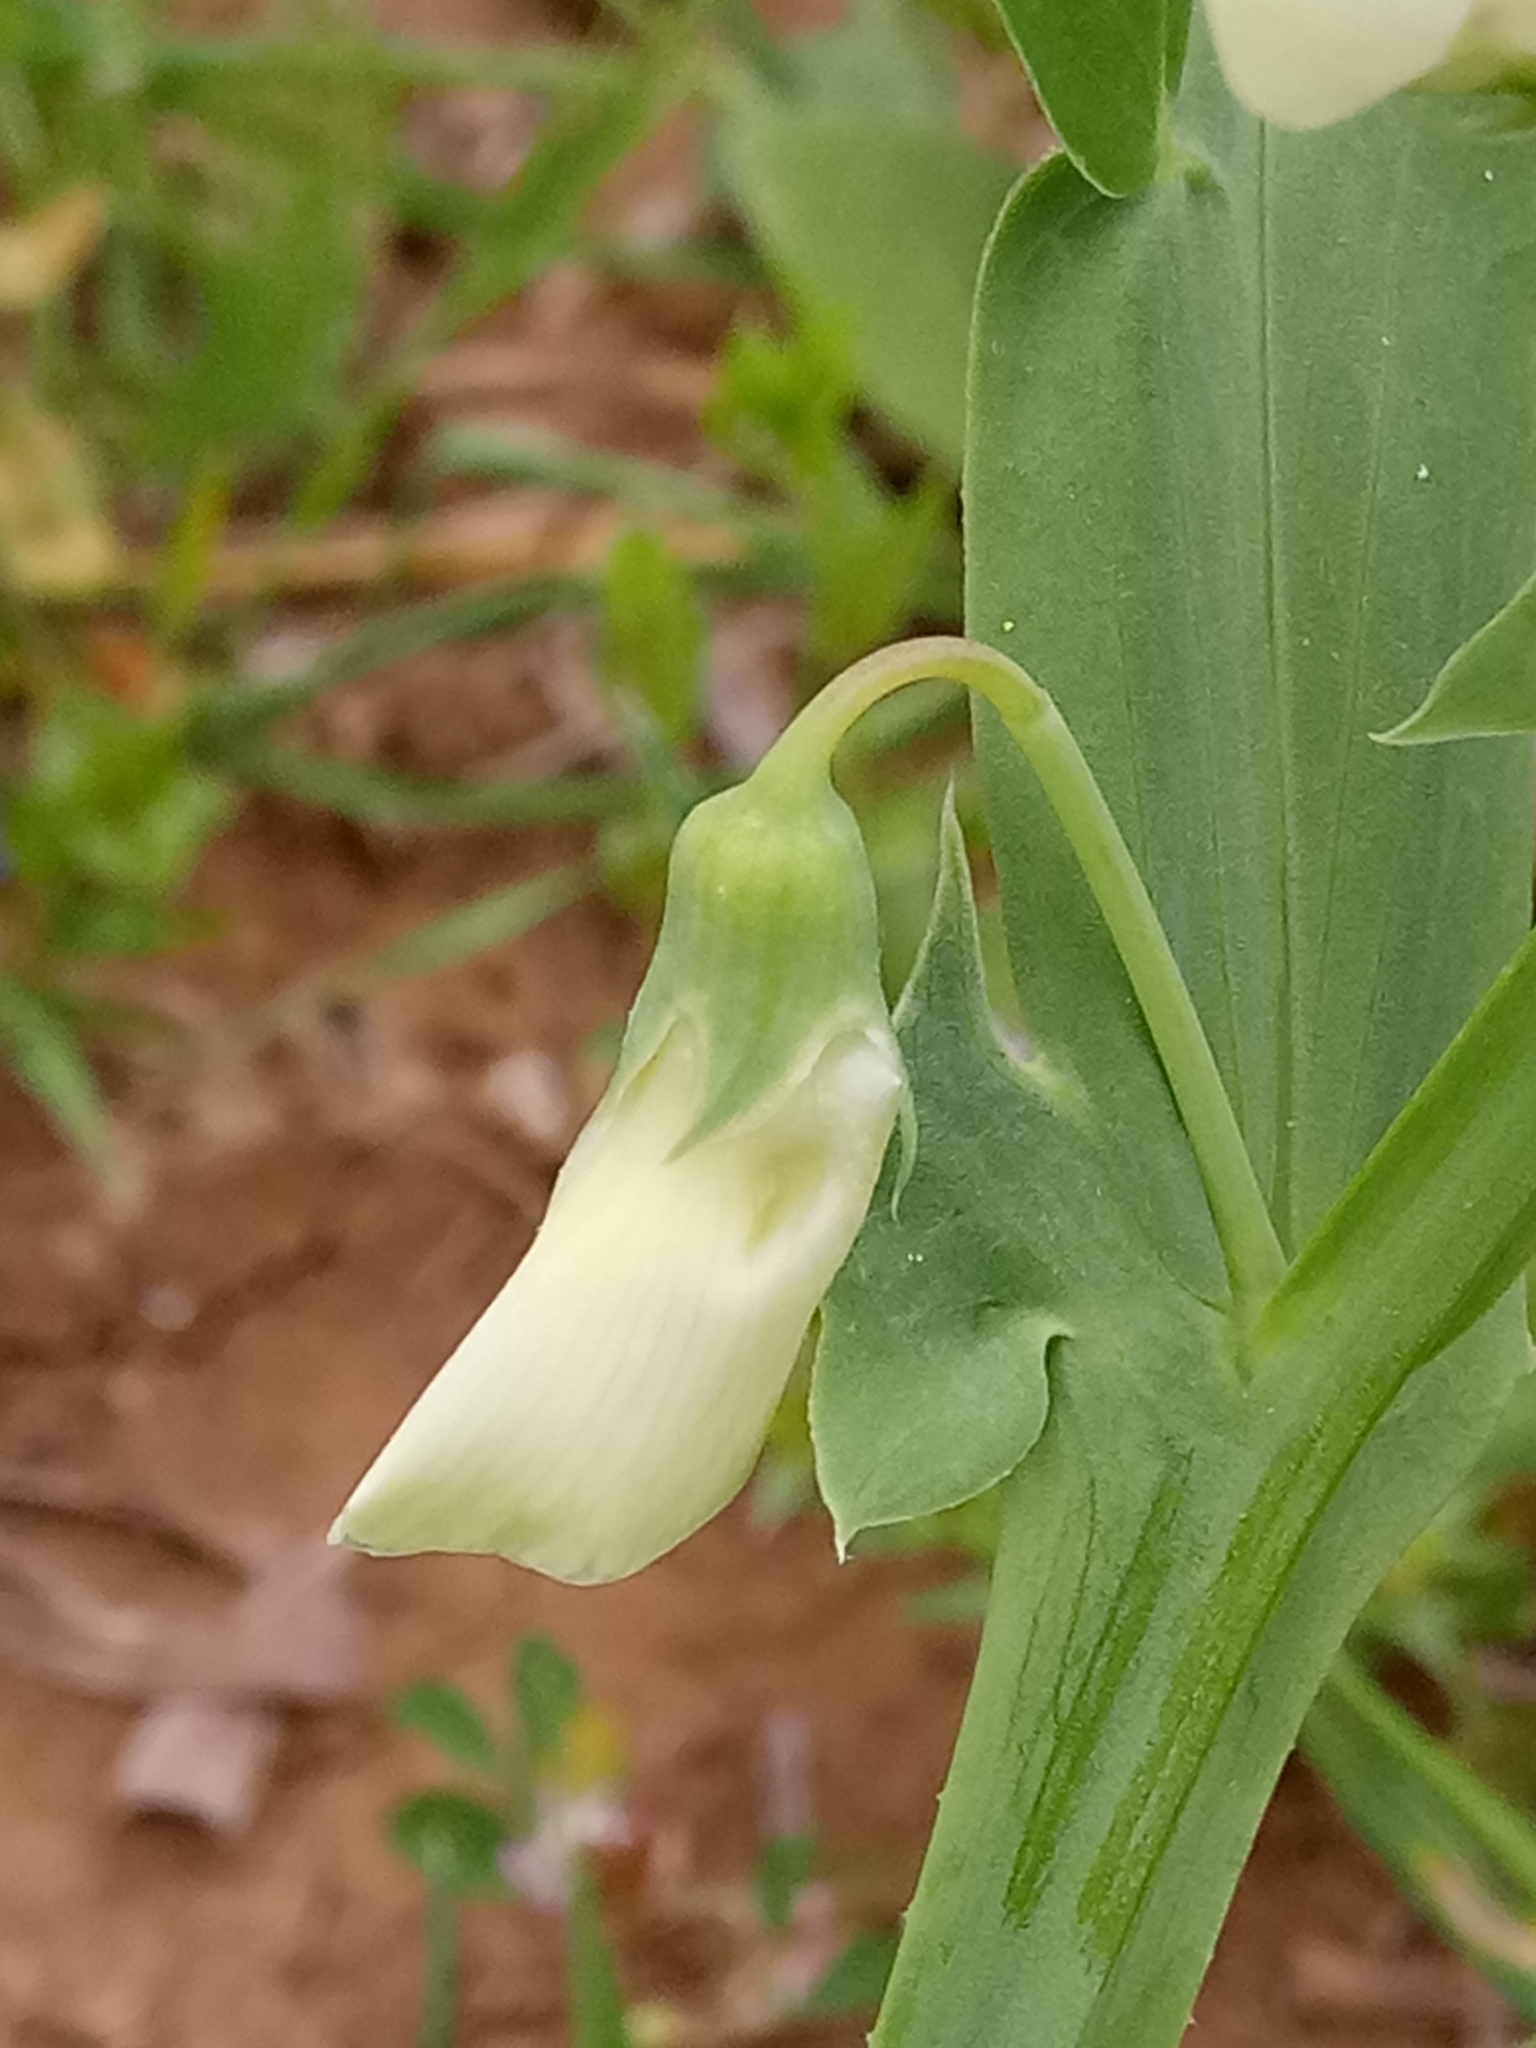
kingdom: Plantae
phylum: Tracheophyta
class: Magnoliopsida
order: Fabales
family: Fabaceae
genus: Lathyrus
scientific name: Lathyrus ochrus
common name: Winged vetchling
